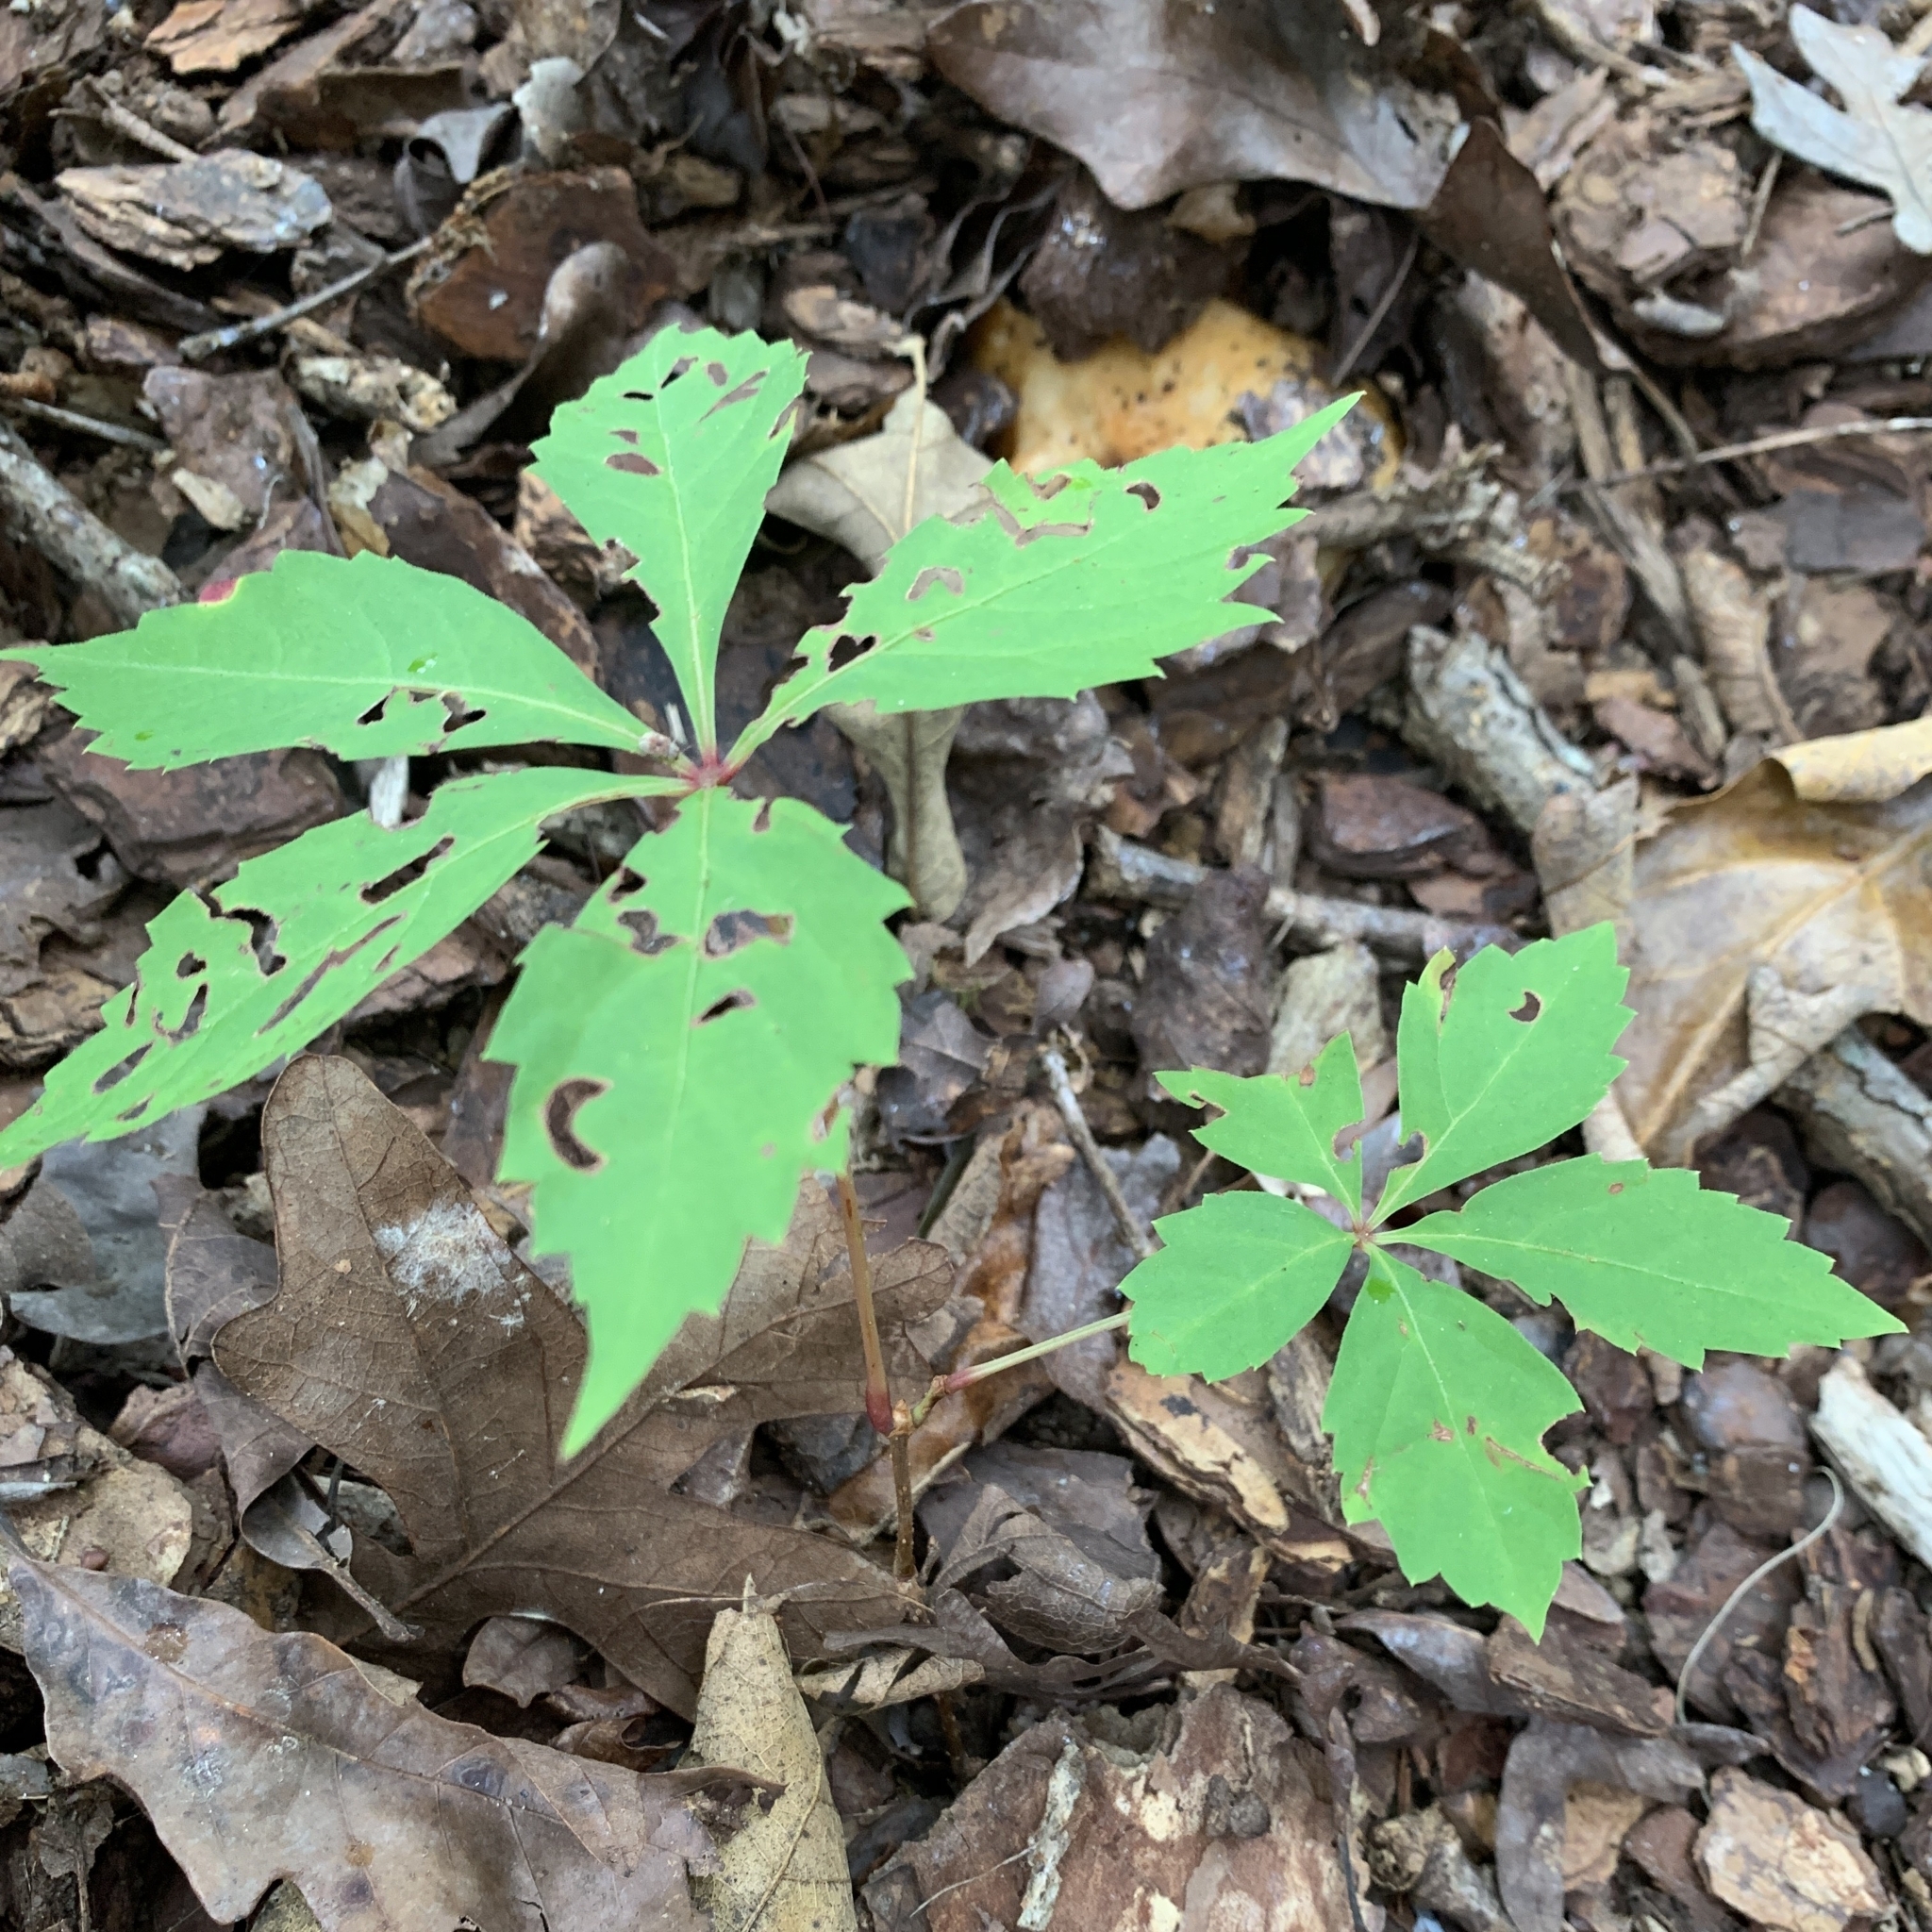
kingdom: Plantae
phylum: Tracheophyta
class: Magnoliopsida
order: Vitales
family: Vitaceae
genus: Parthenocissus
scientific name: Parthenocissus quinquefolia
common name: Virginia-creeper
